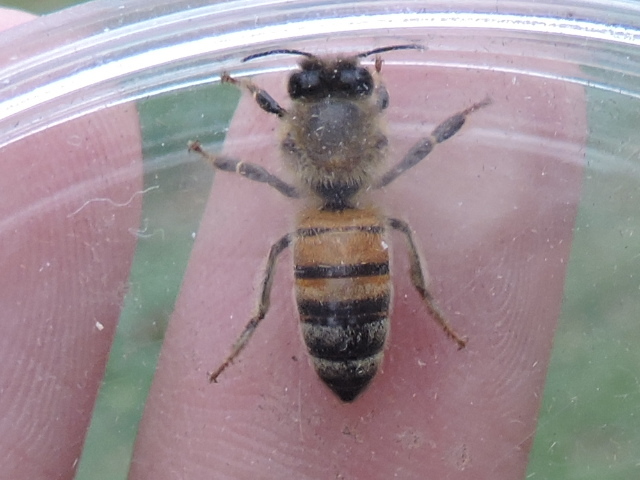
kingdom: Animalia
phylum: Arthropoda
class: Insecta
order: Hymenoptera
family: Apidae
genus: Apis
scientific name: Apis mellifera
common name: Honey bee
